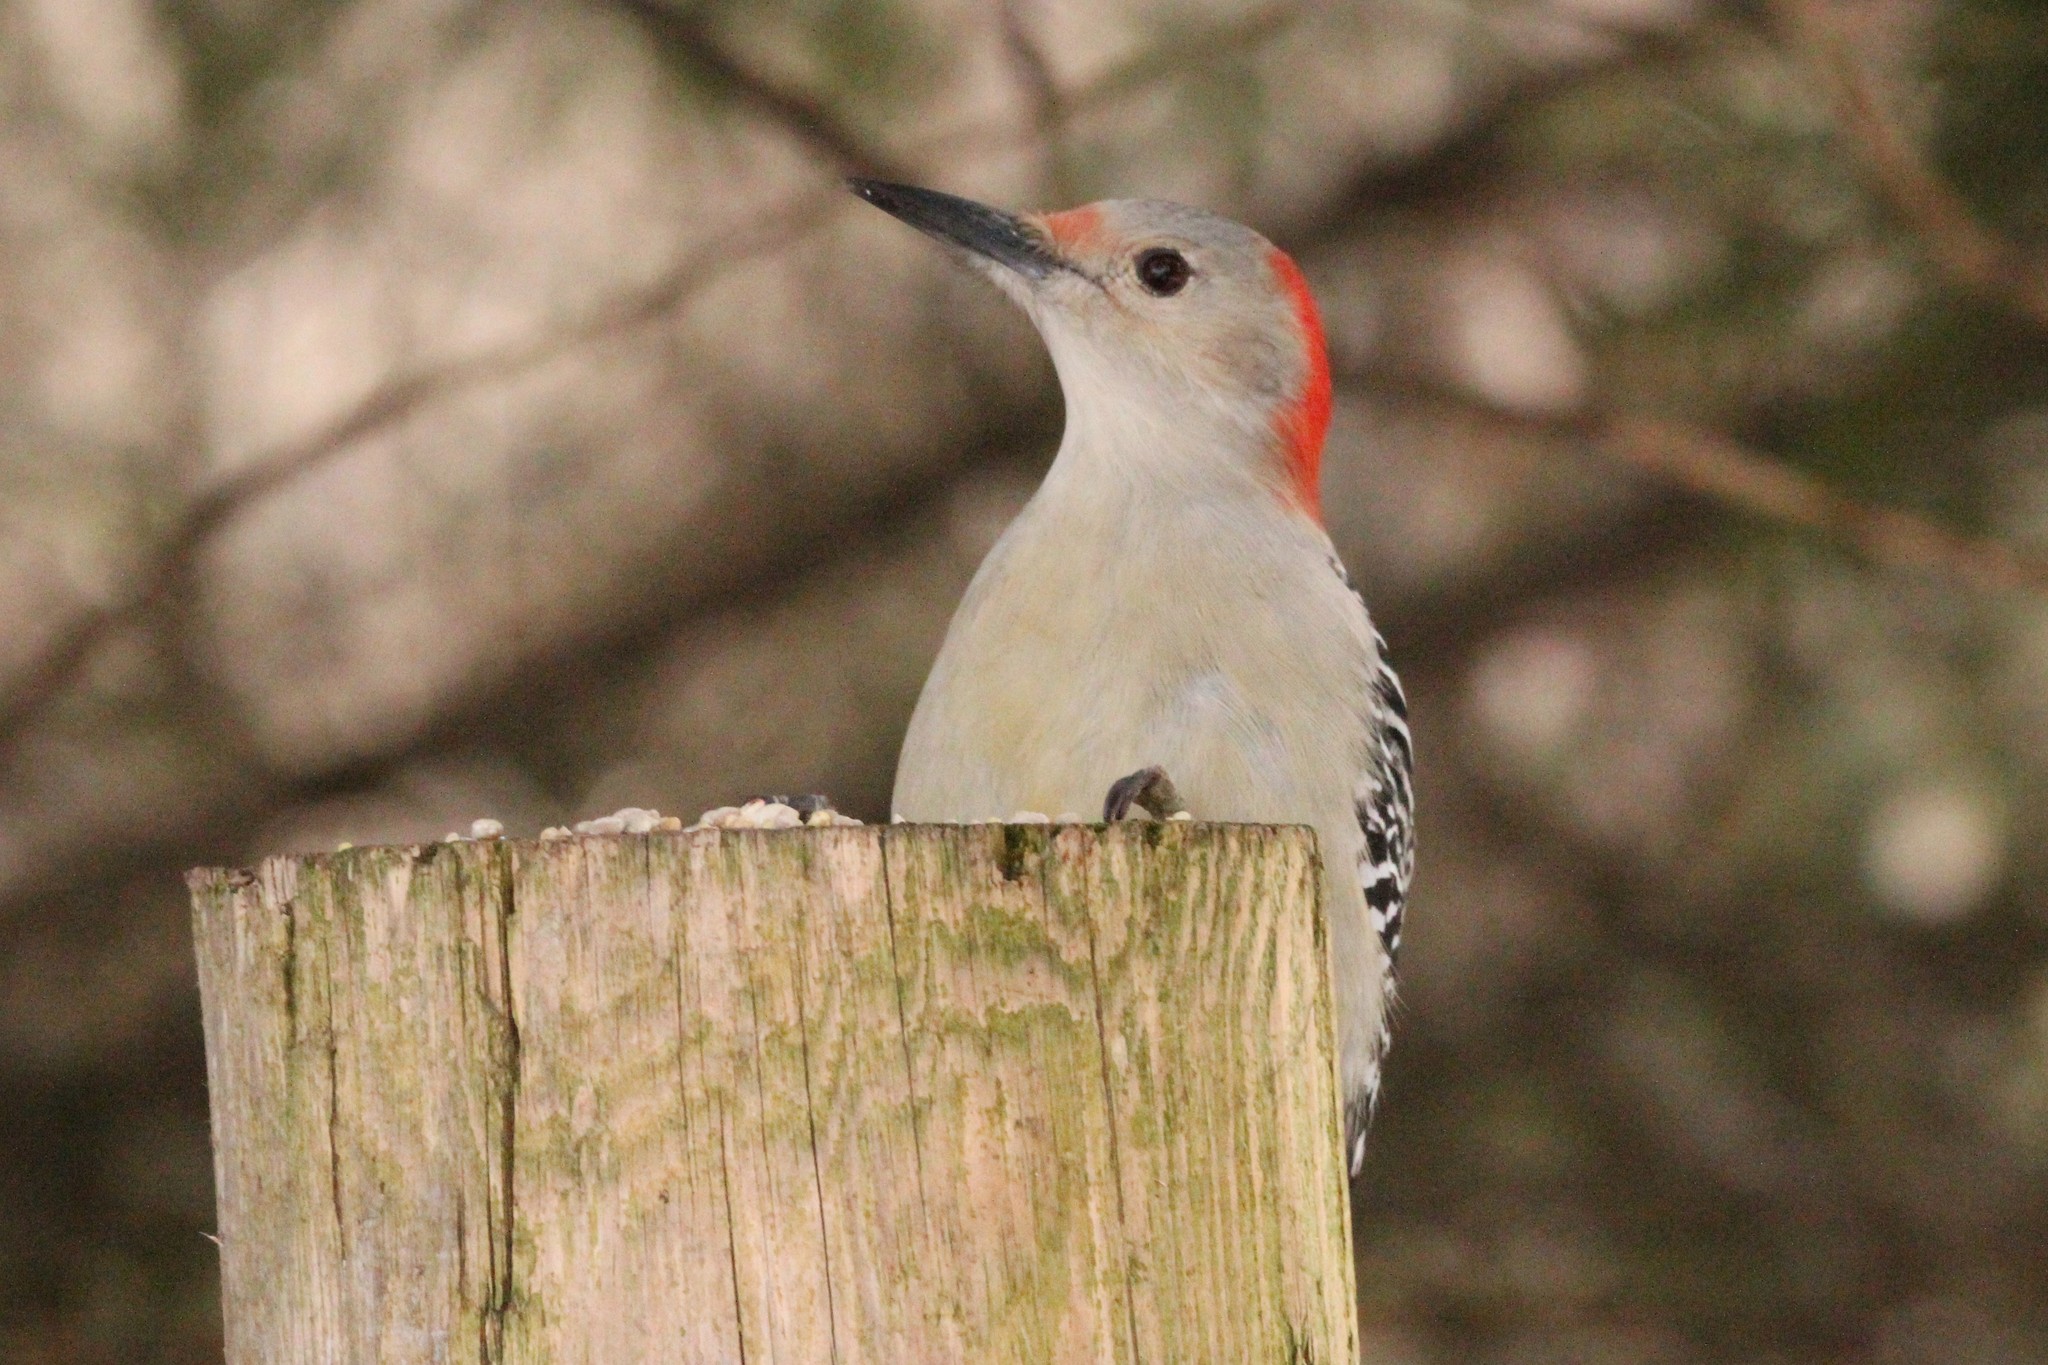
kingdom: Animalia
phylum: Chordata
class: Aves
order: Piciformes
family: Picidae
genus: Melanerpes
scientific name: Melanerpes carolinus
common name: Red-bellied woodpecker
